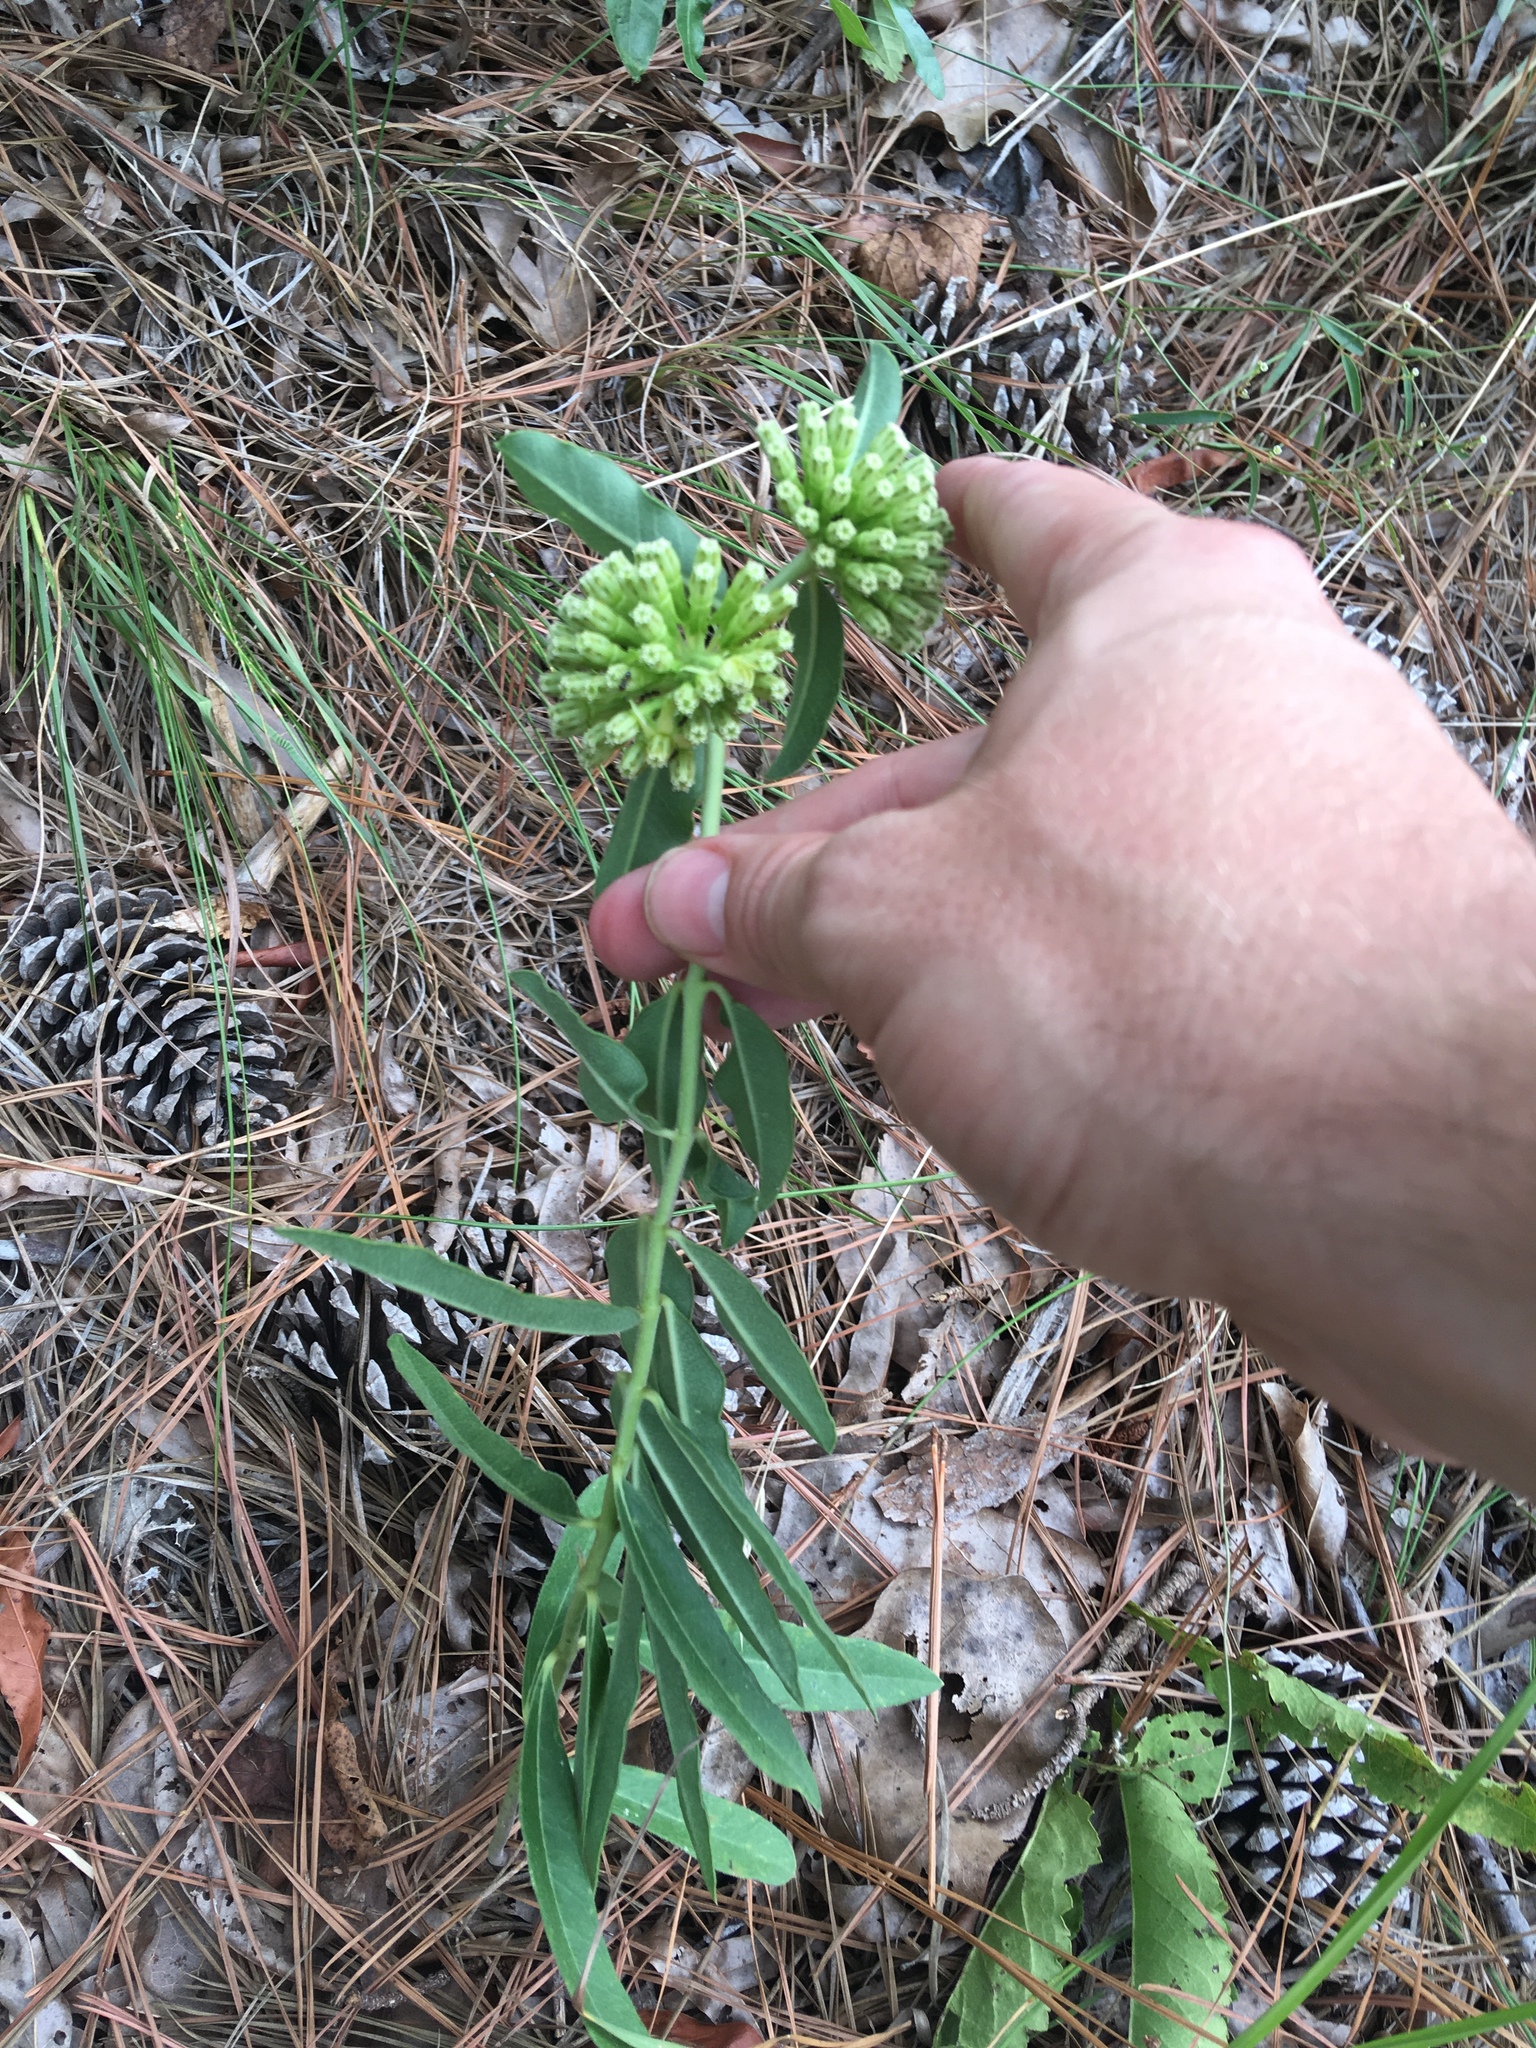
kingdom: Plantae
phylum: Tracheophyta
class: Magnoliopsida
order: Gentianales
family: Apocynaceae
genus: Asclepias
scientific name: Asclepias viridiflora
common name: Green comet milkweed
